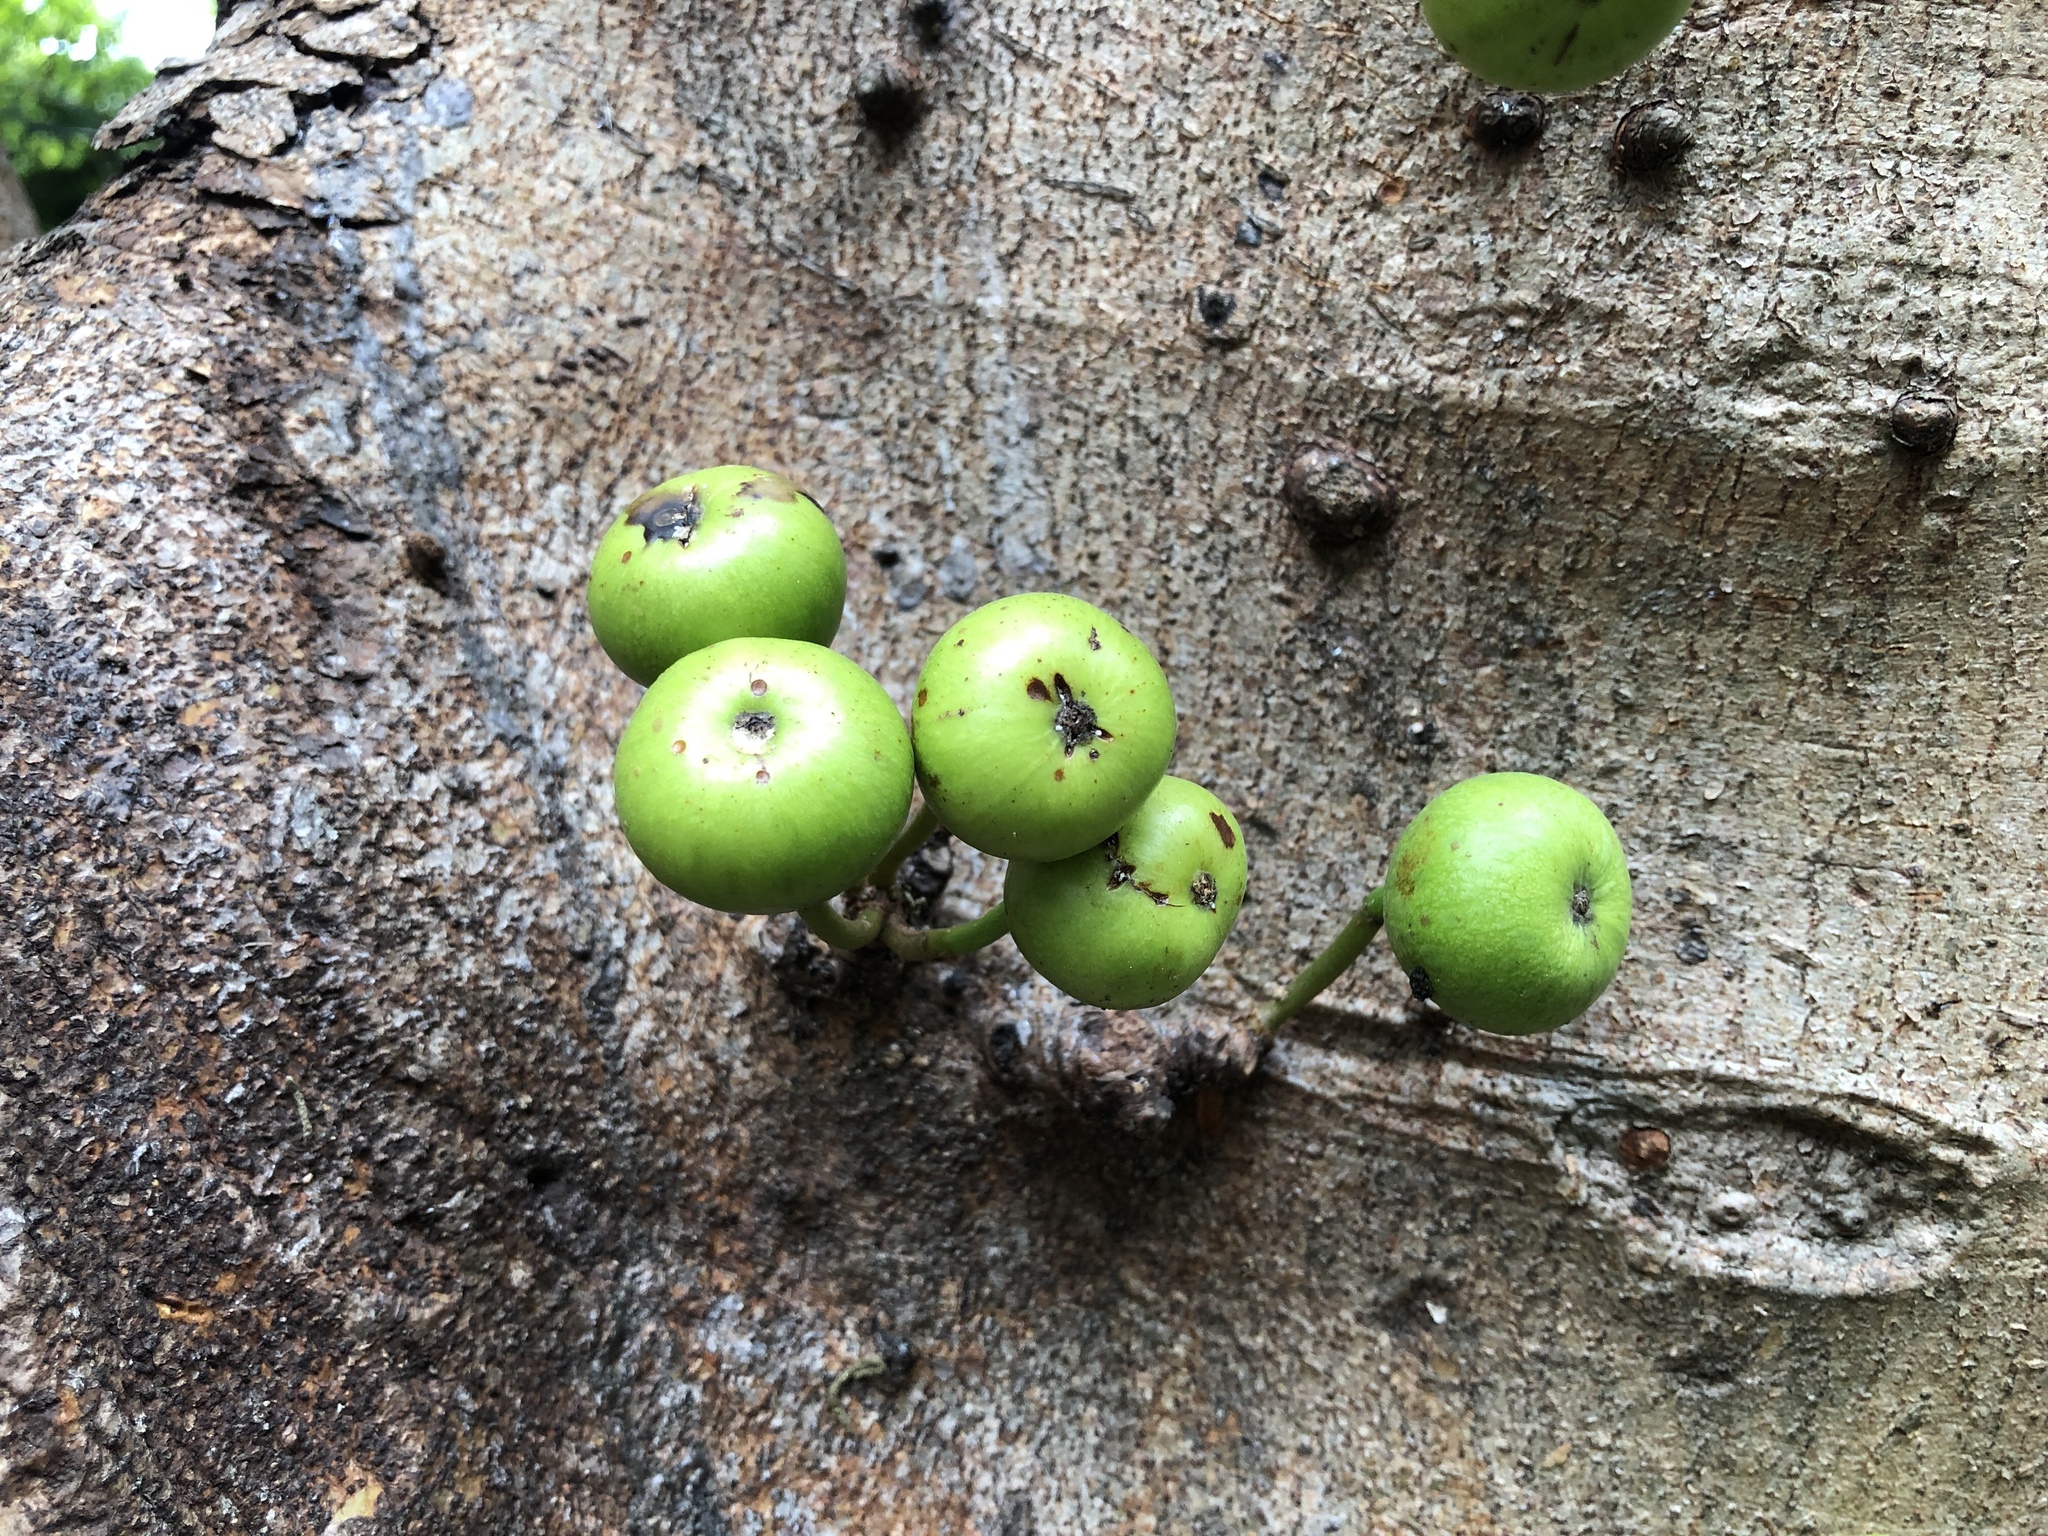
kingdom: Plantae
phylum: Tracheophyta
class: Magnoliopsida
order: Rosales
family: Moraceae
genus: Ficus
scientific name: Ficus variegata
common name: Variegated fig
